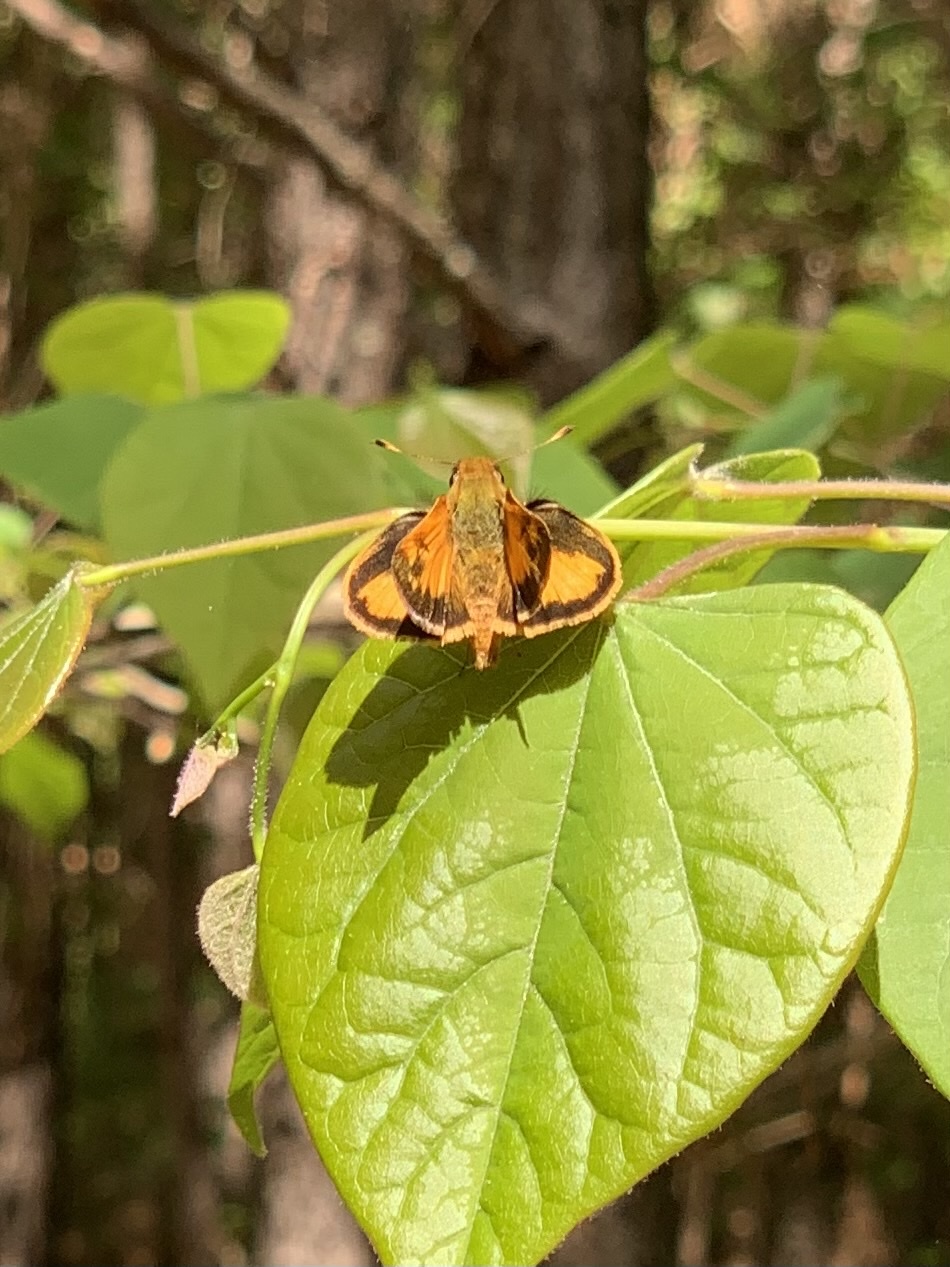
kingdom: Animalia
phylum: Arthropoda
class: Insecta
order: Lepidoptera
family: Hesperiidae
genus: Lon
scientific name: Lon zabulon
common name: Zabulon skipper
